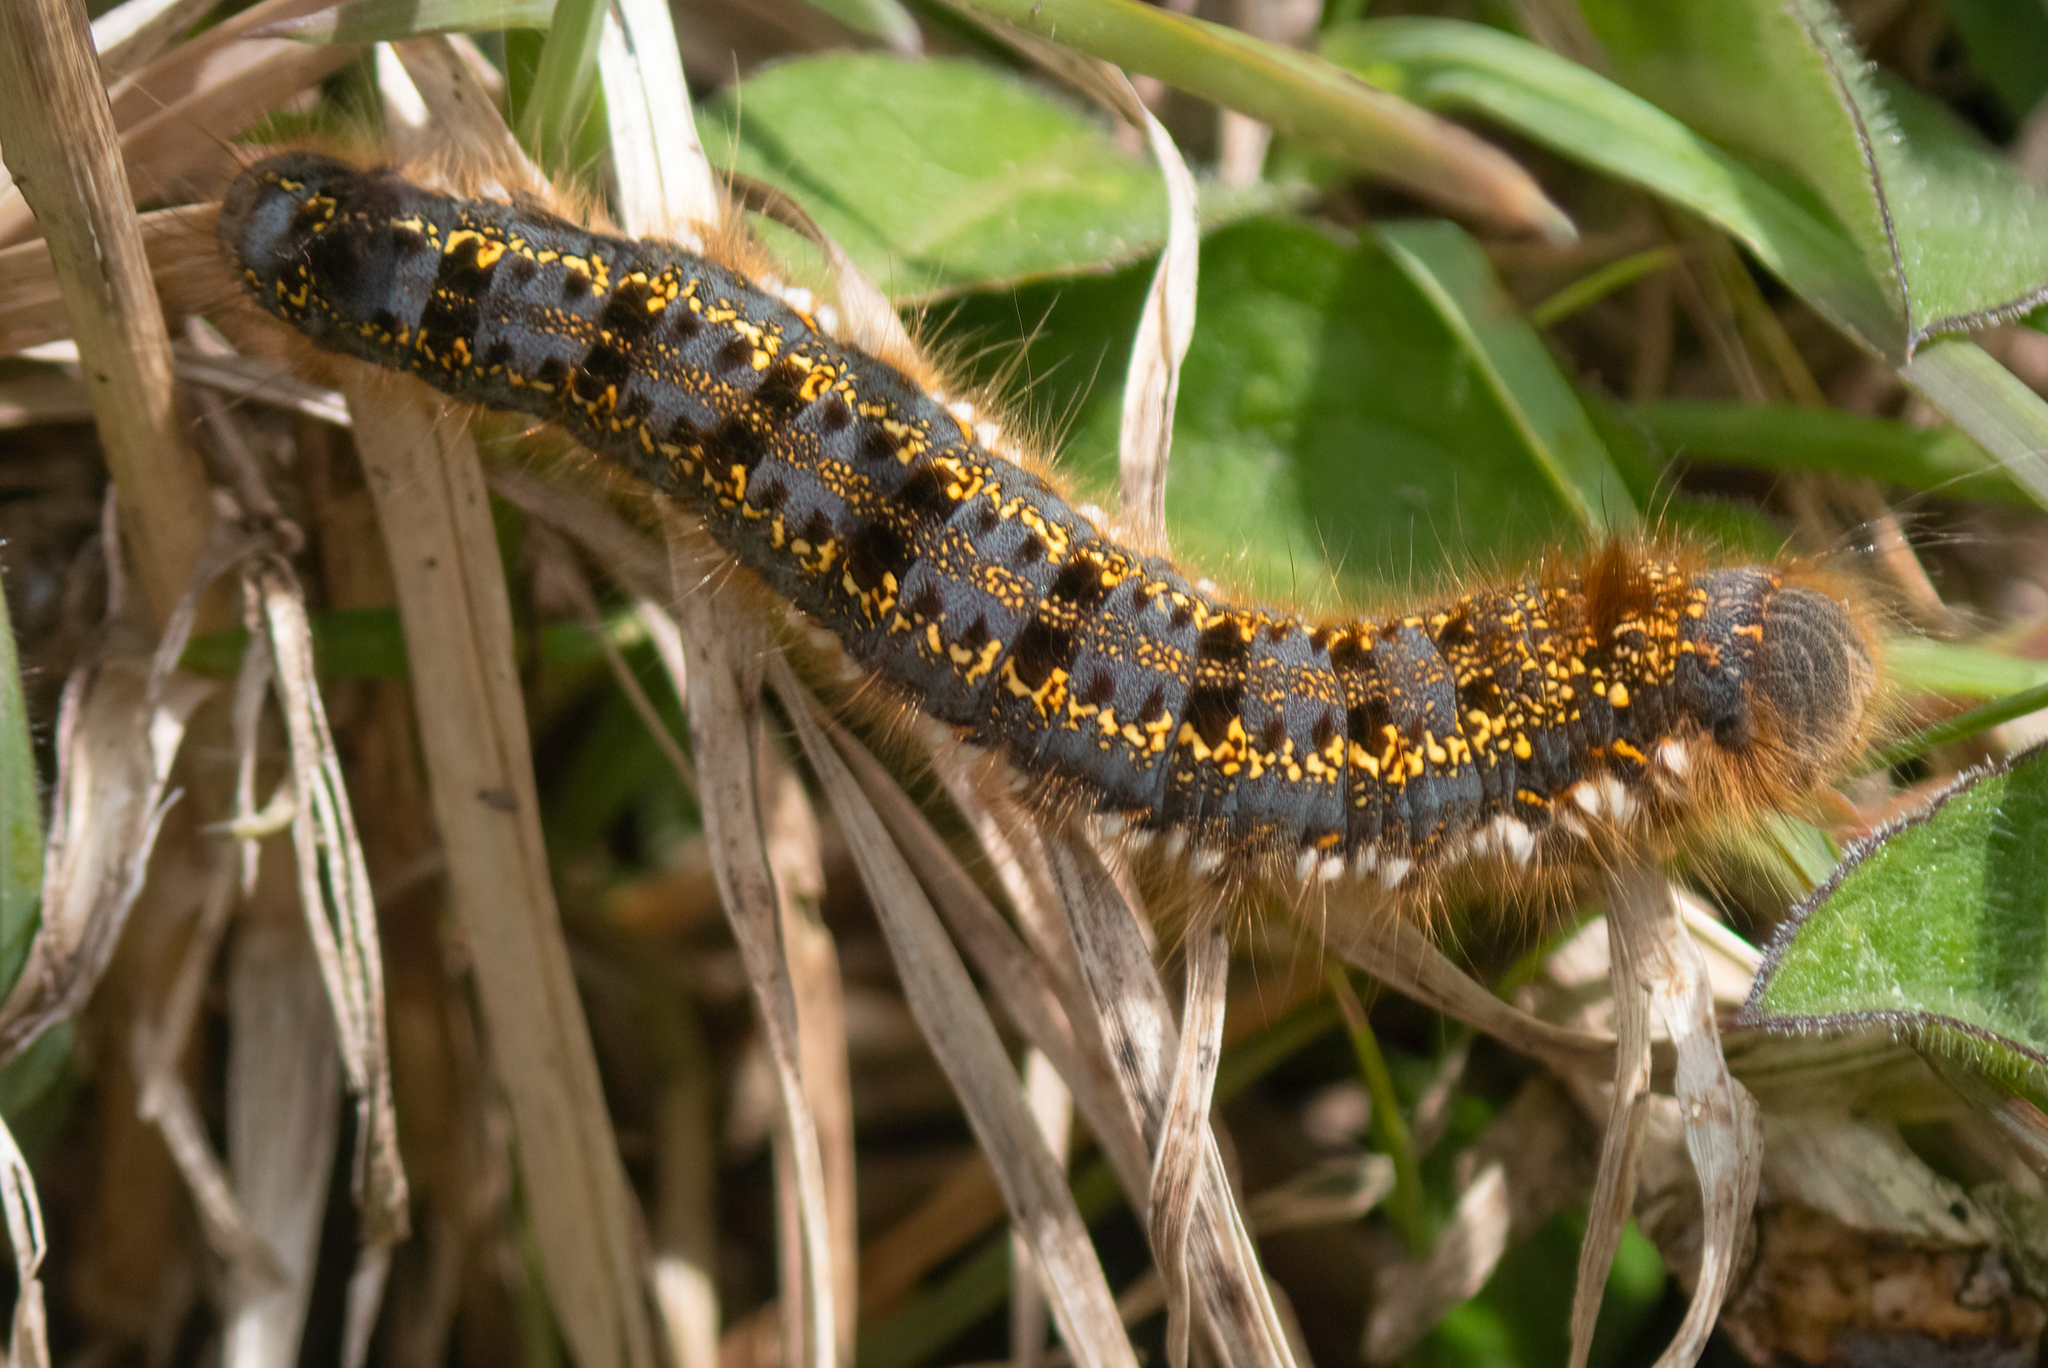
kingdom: Animalia
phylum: Arthropoda
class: Insecta
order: Lepidoptera
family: Lasiocampidae
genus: Euthrix
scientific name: Euthrix potatoria
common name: Drinker
